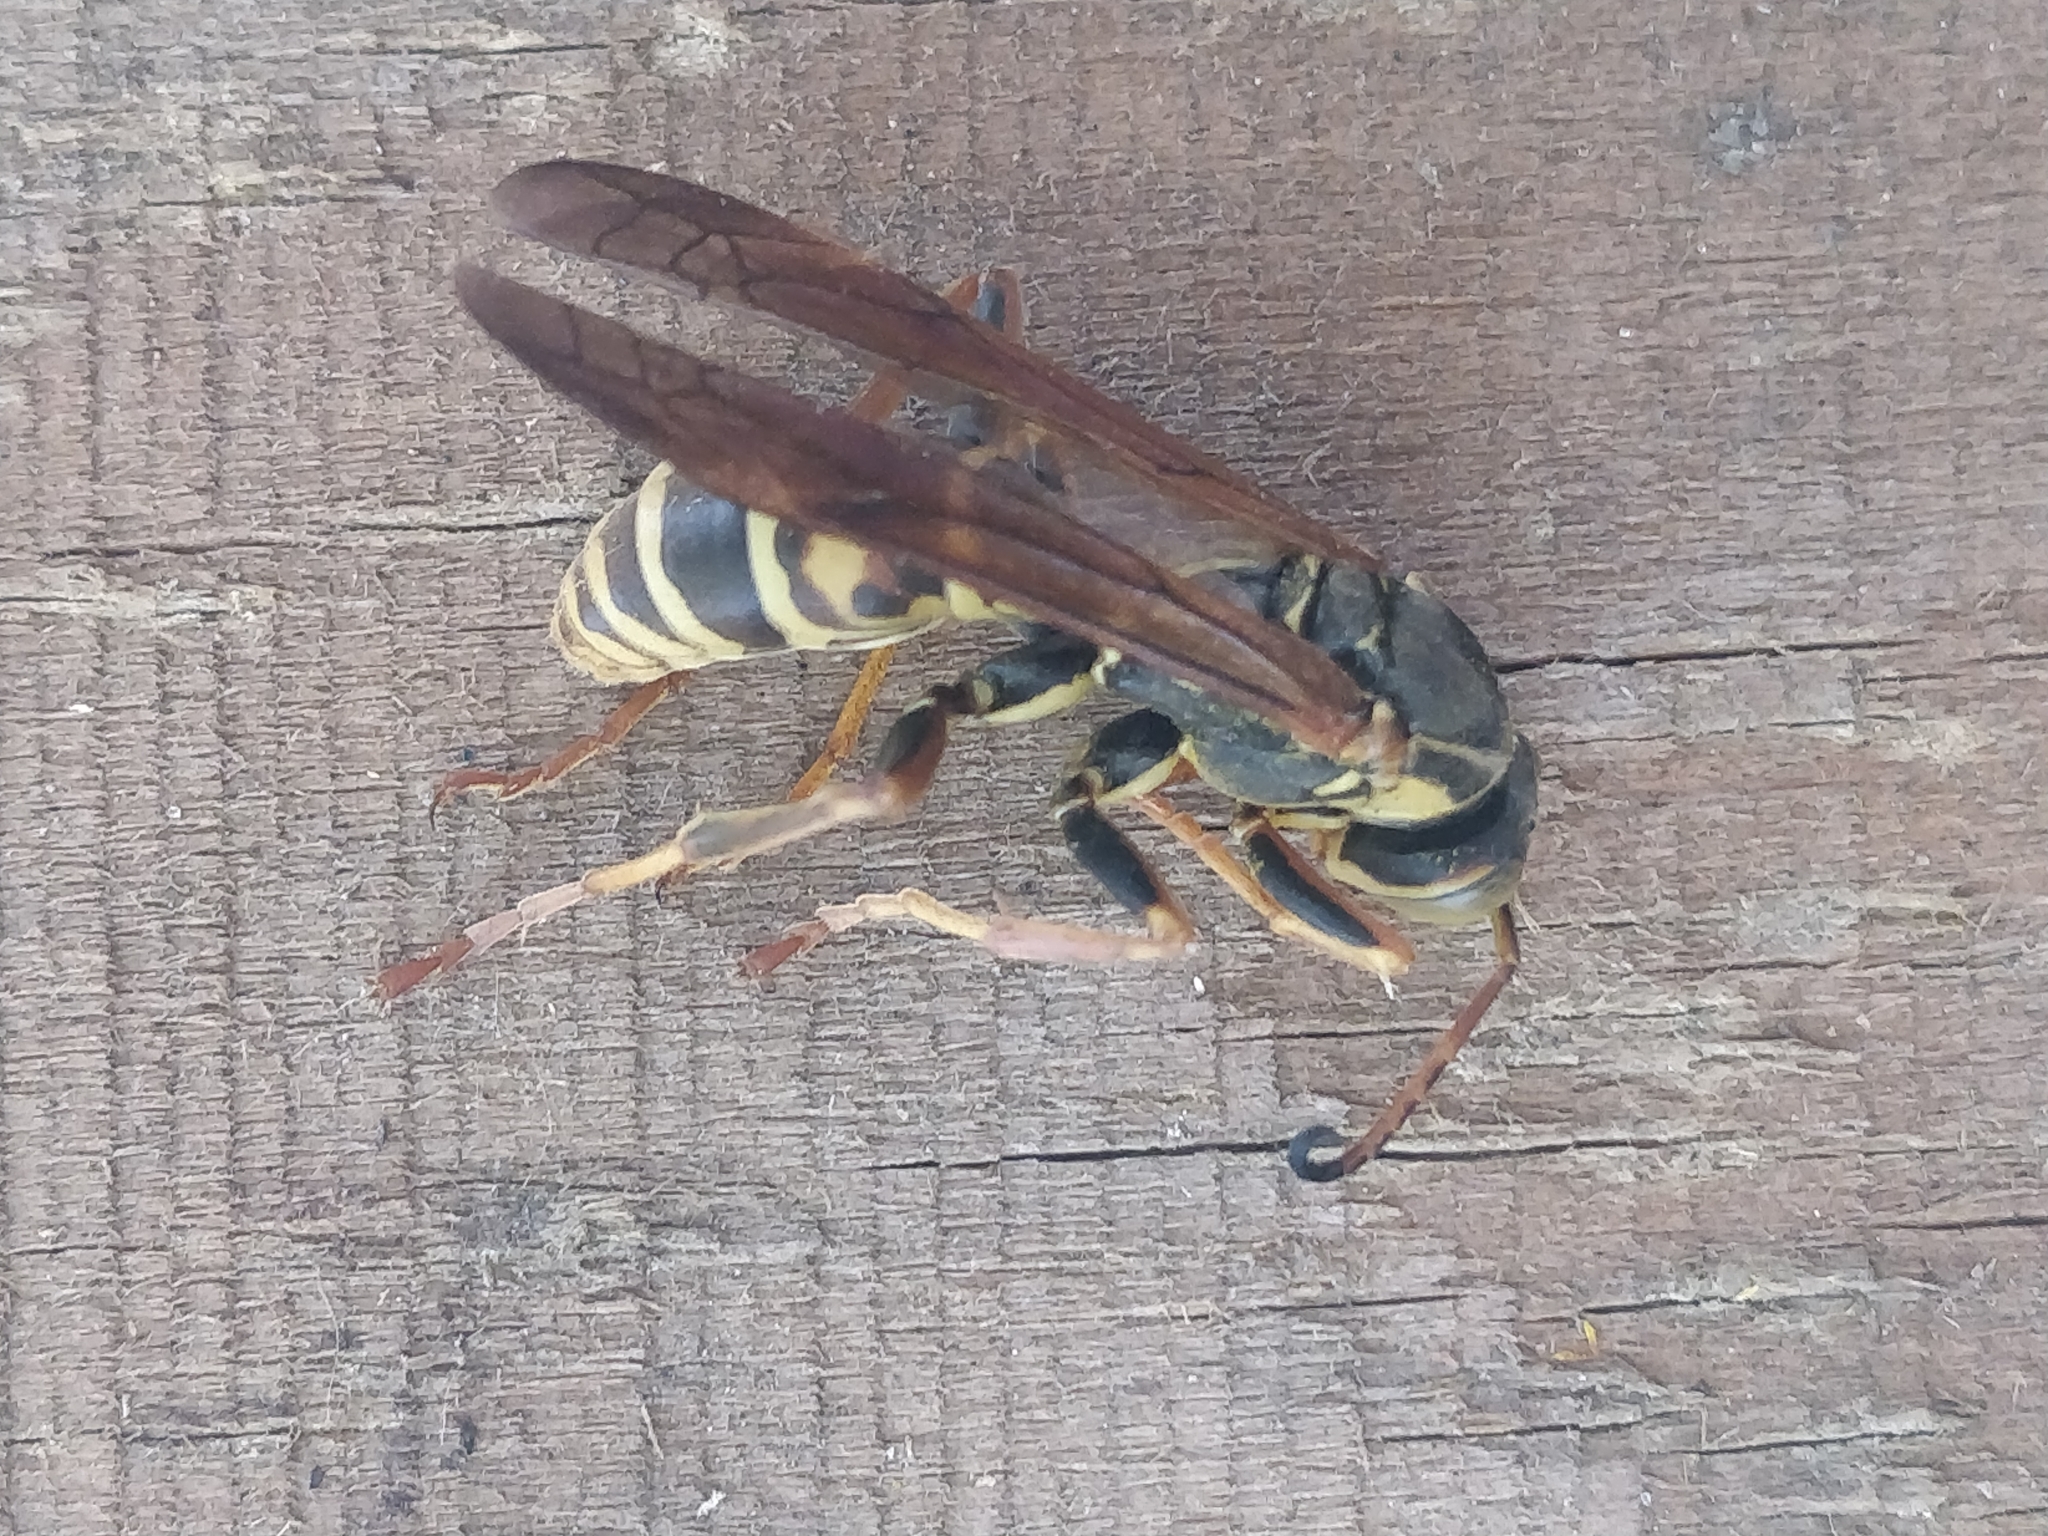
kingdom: Animalia
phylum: Arthropoda
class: Insecta
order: Hymenoptera
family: Eumenidae
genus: Polistes
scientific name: Polistes fuscatus
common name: Dark paper wasp
